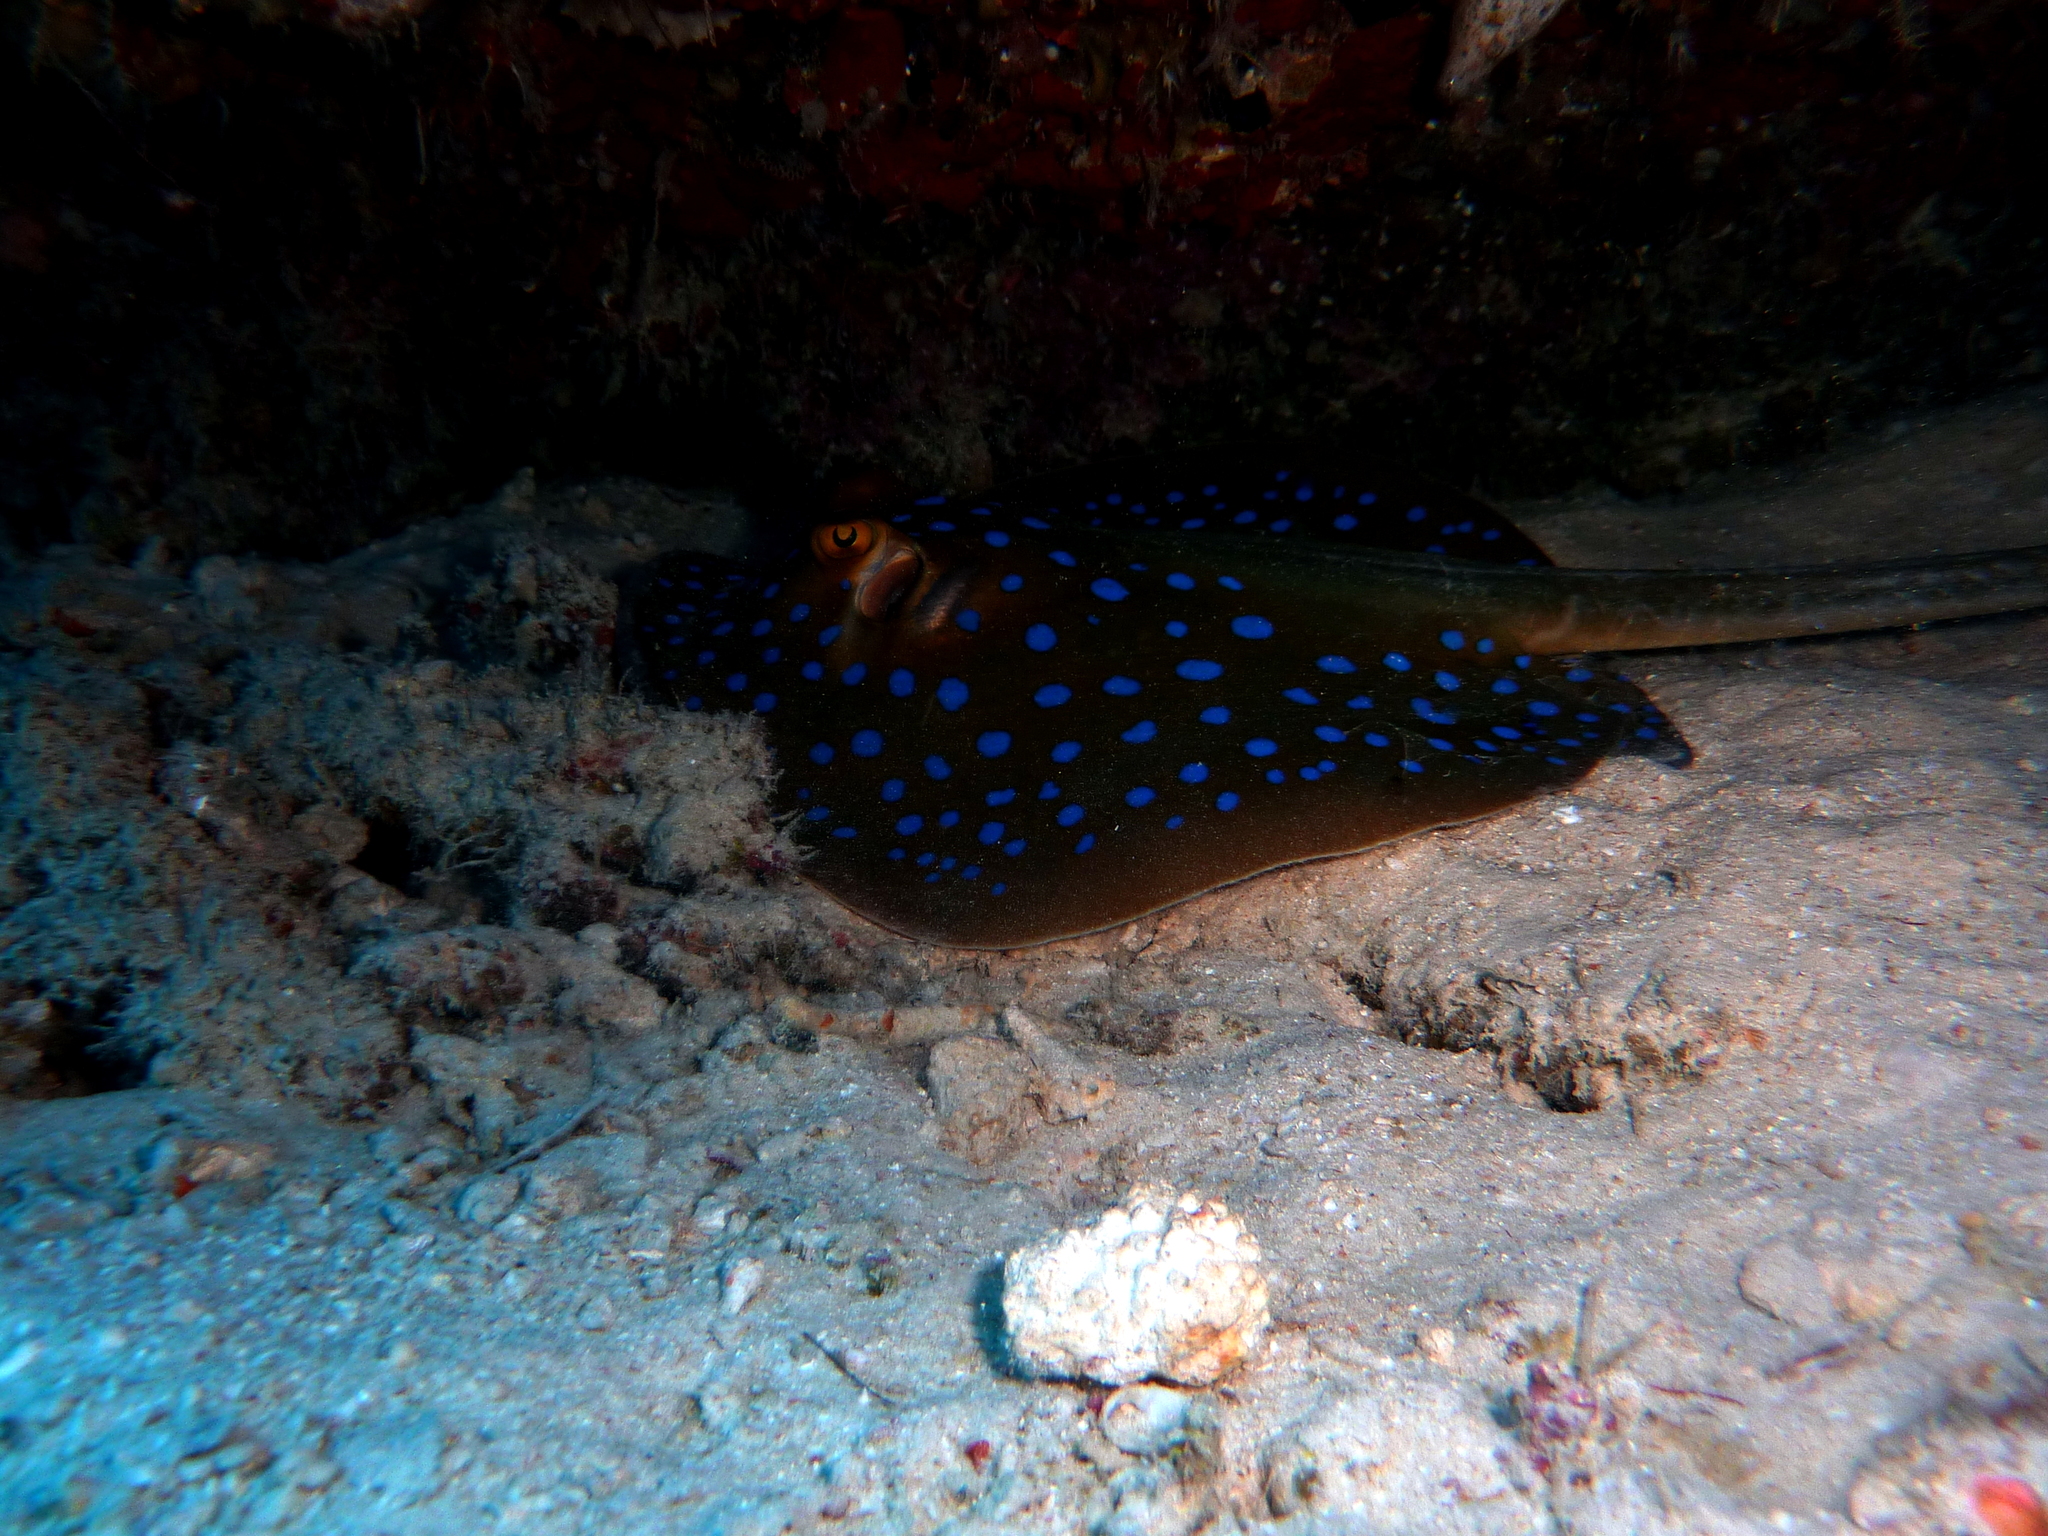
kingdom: Animalia
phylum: Chordata
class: Elasmobranchii
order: Myliobatiformes
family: Dasyatidae
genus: Taeniura
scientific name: Taeniura lessoni
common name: Oceania fantail ray
